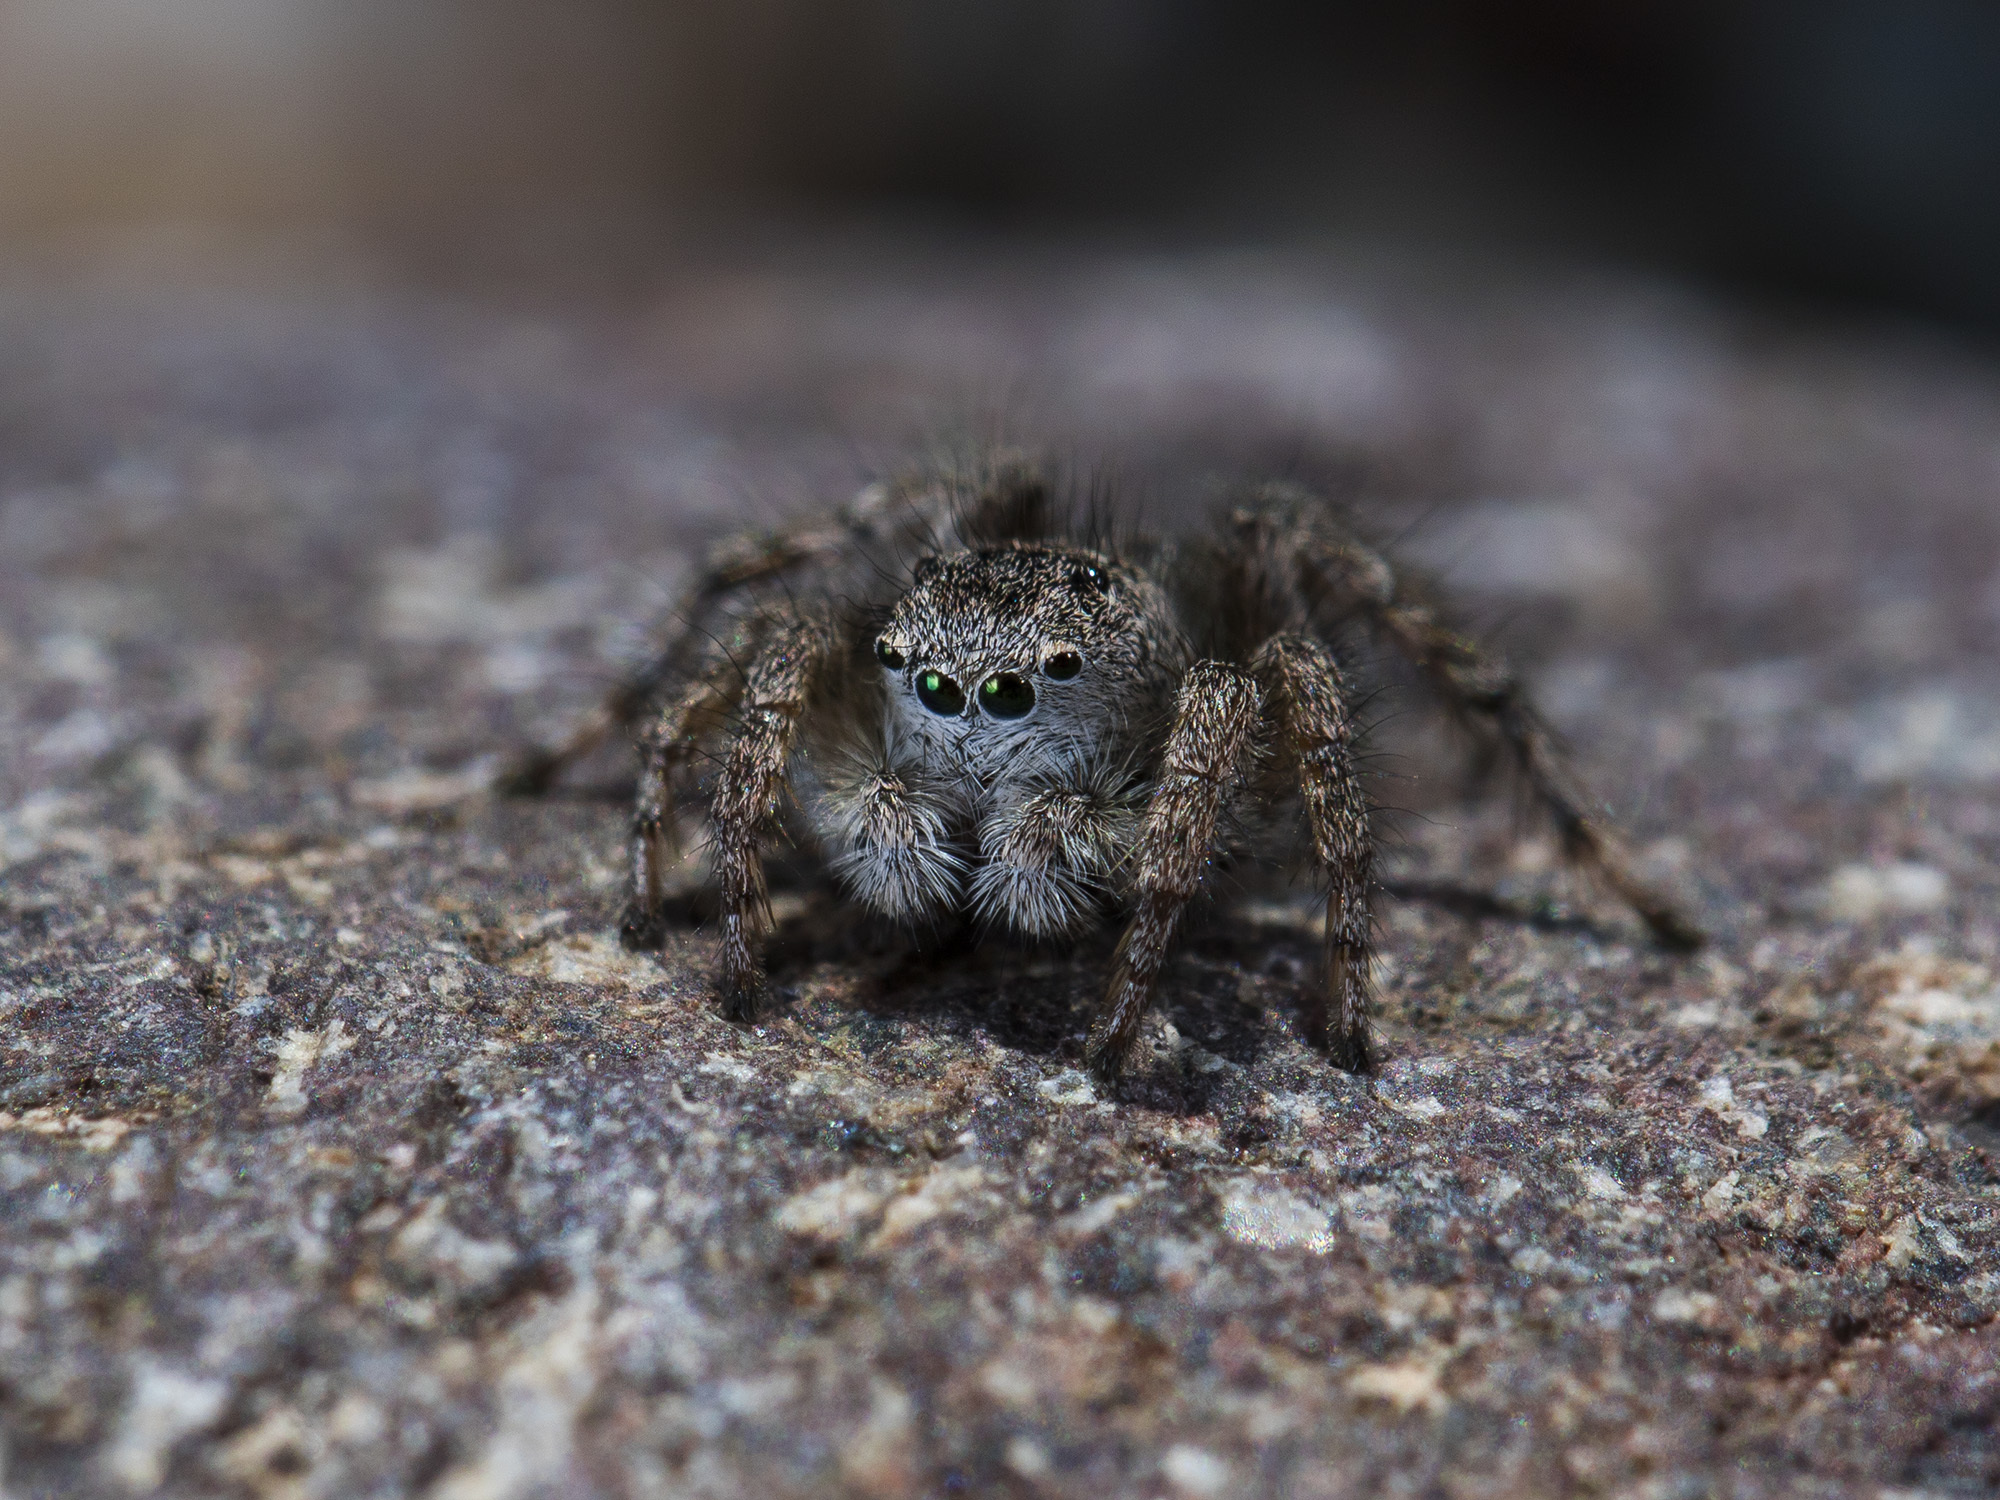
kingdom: Animalia
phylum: Arthropoda
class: Arachnida
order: Araneae
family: Salticidae
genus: Aelurillus
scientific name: Aelurillus dubatolovi
